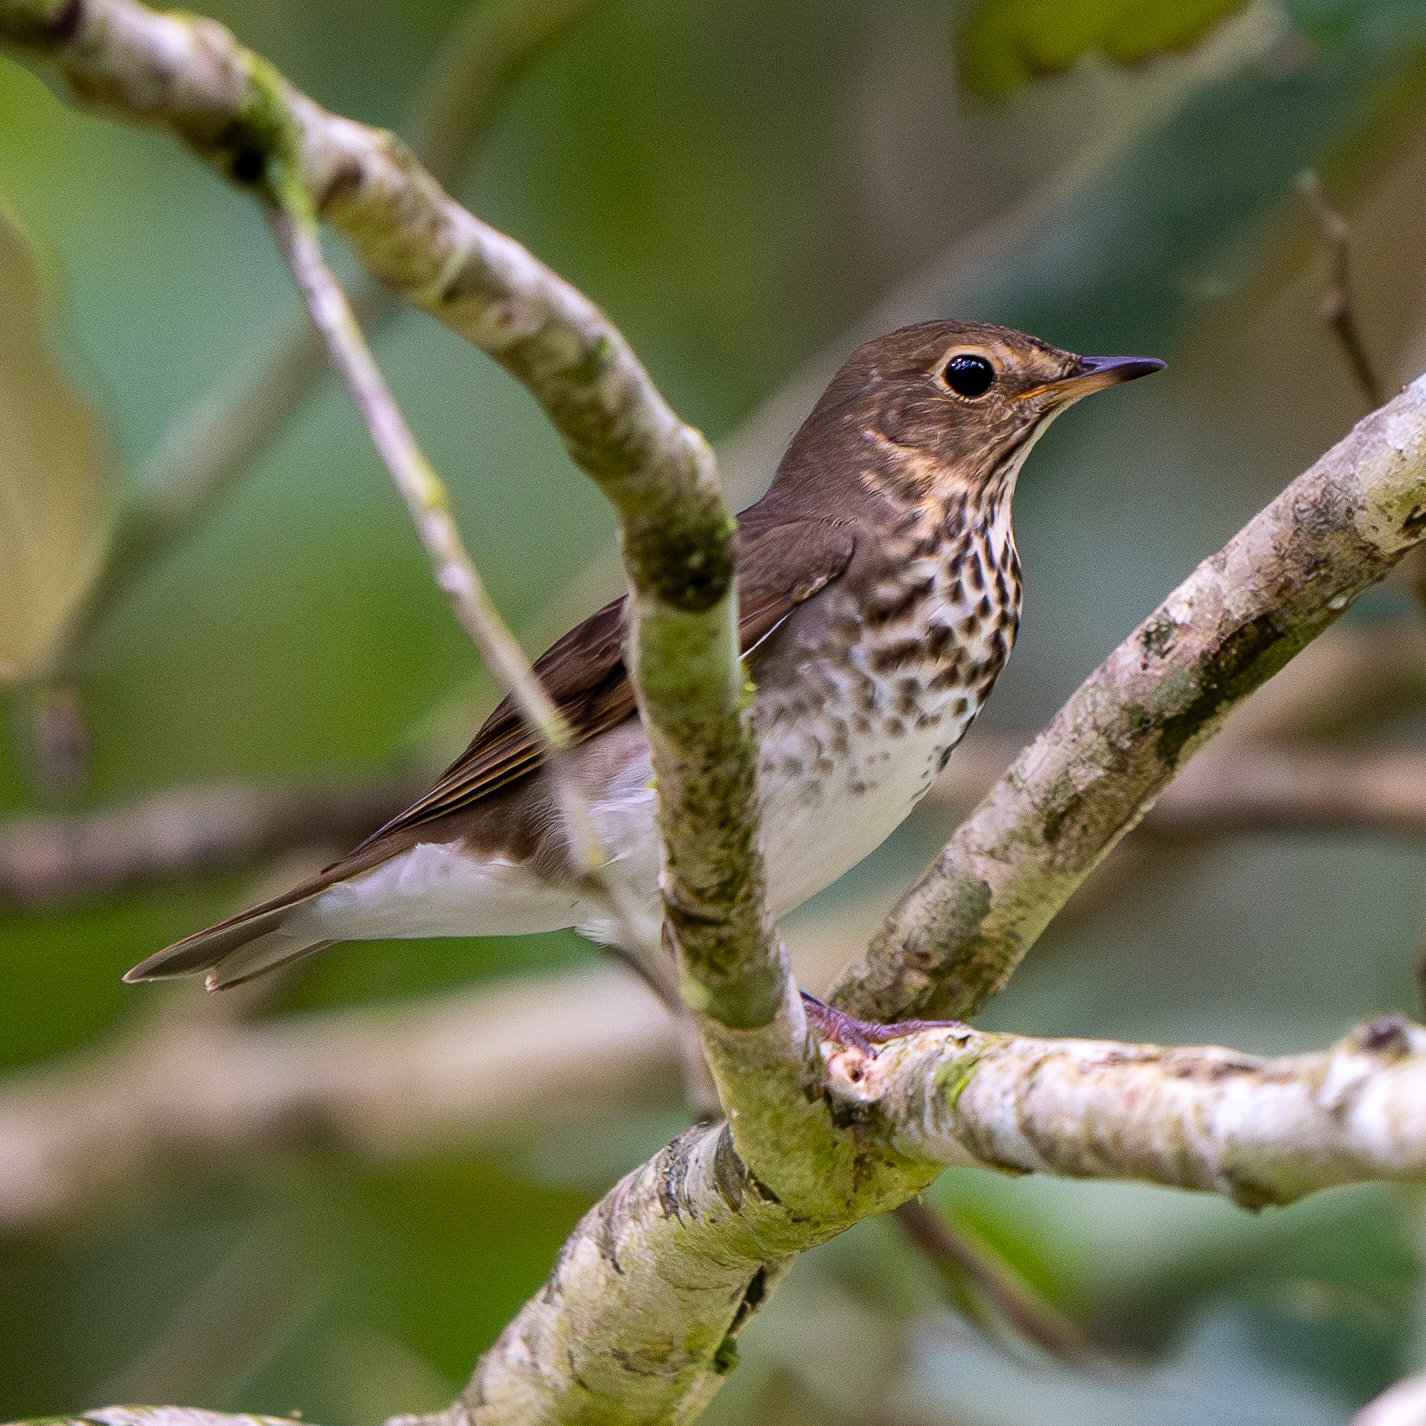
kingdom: Animalia
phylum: Chordata
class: Aves
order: Passeriformes
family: Turdidae
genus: Catharus
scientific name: Catharus ustulatus
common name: Swainson's thrush
